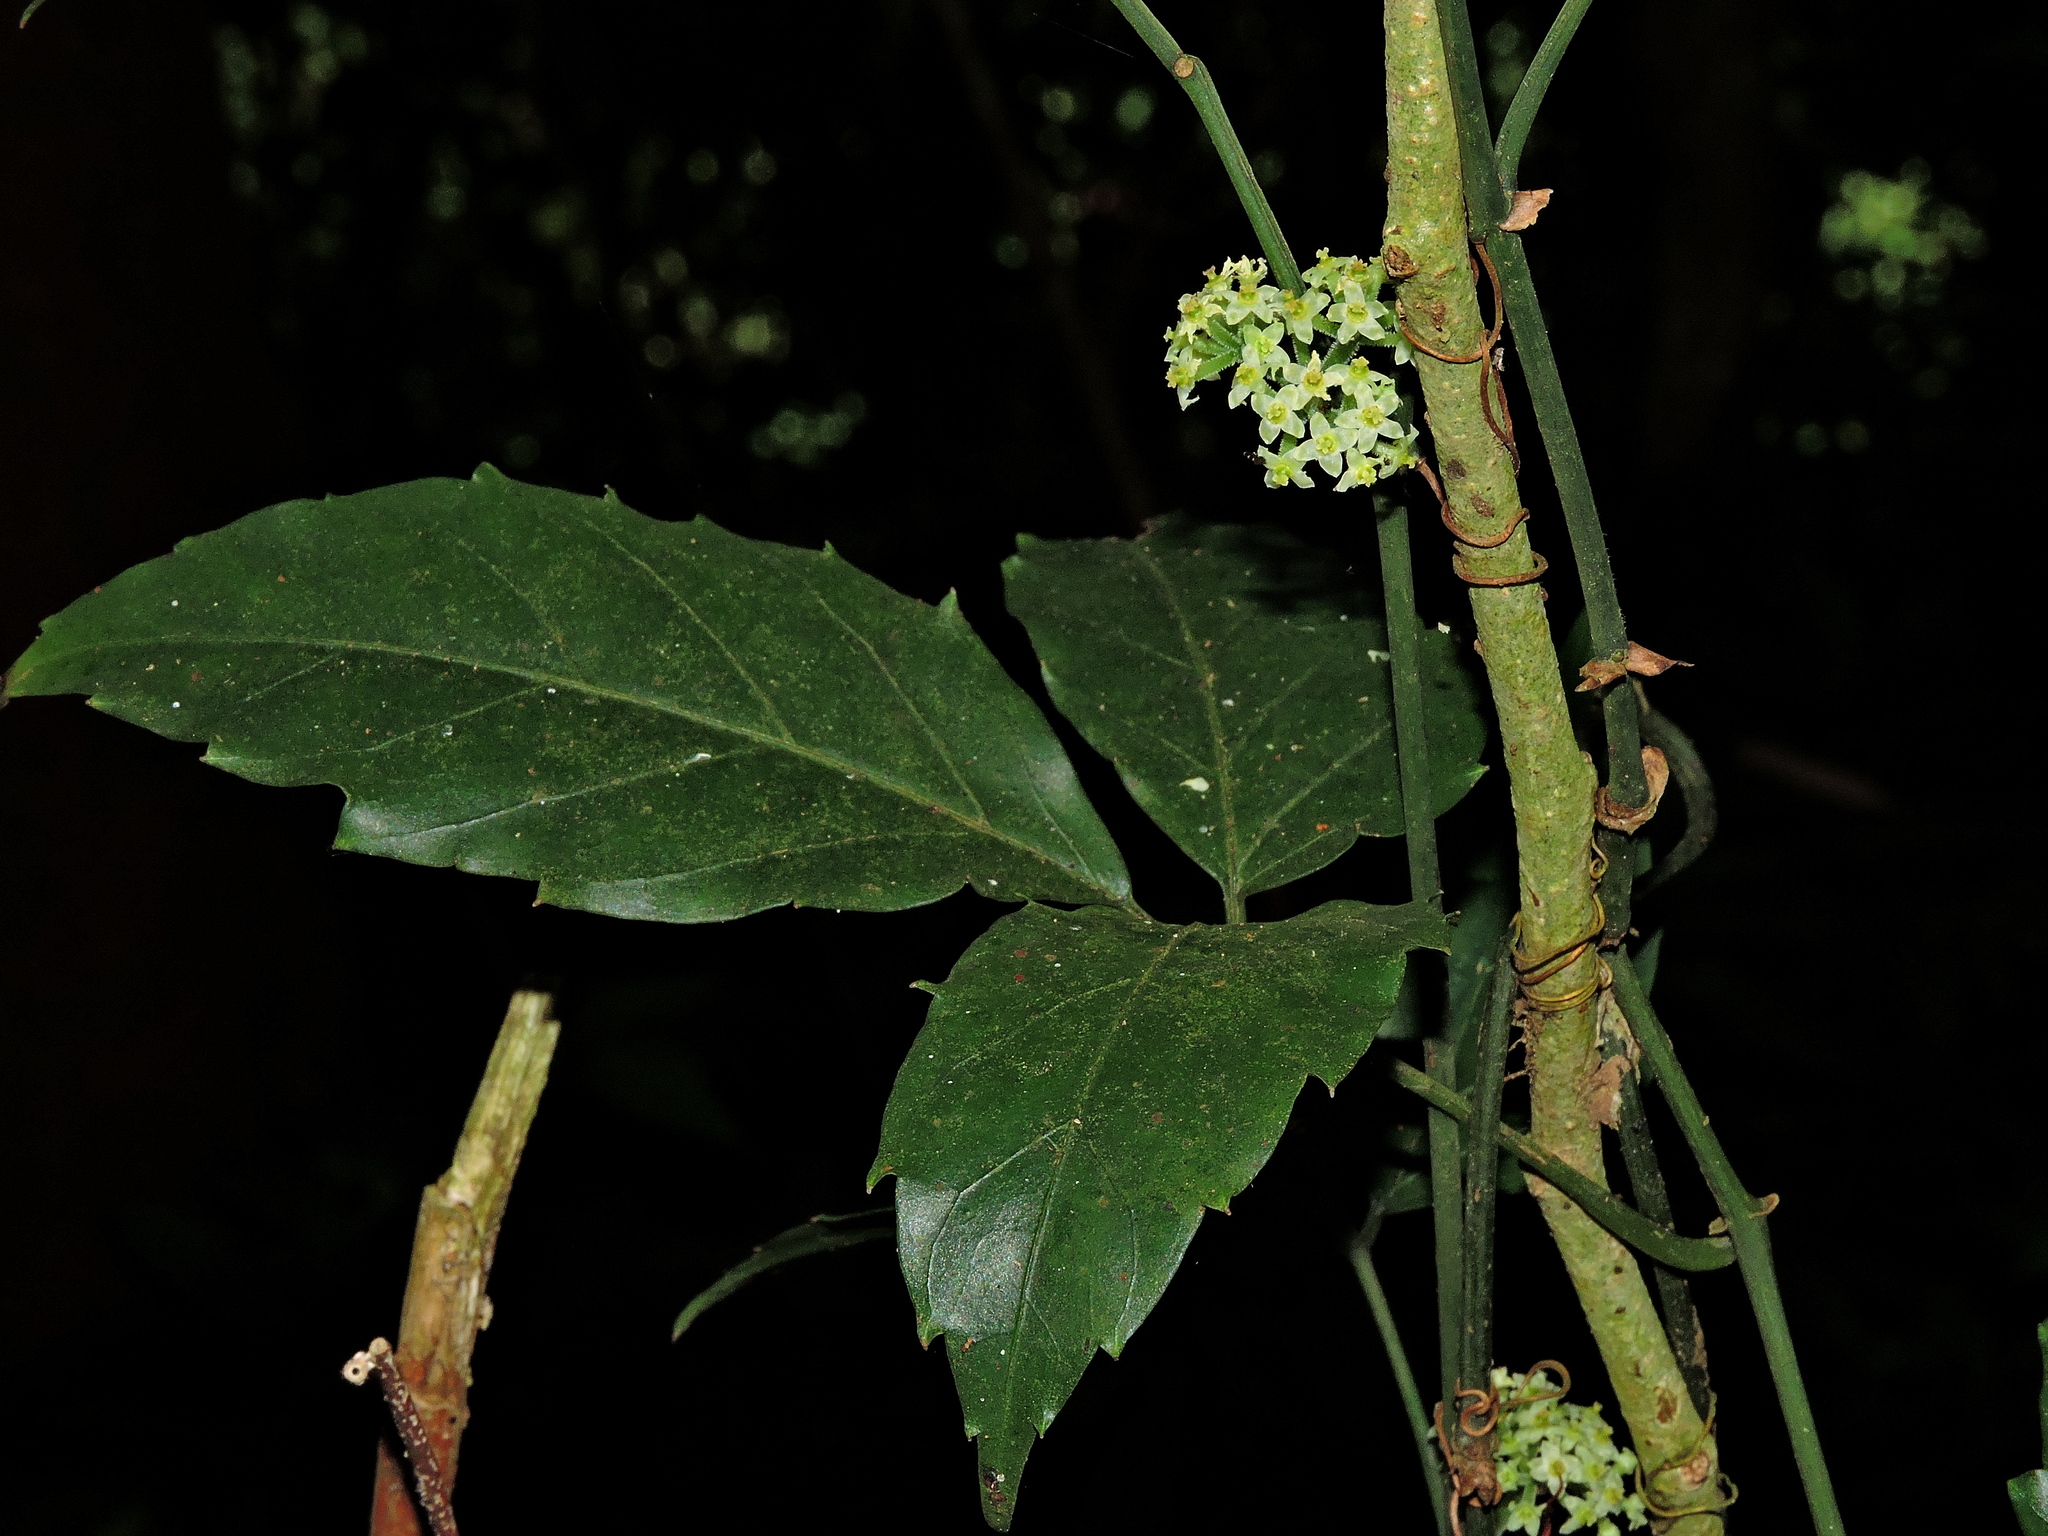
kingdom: Plantae
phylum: Tracheophyta
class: Magnoliopsida
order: Vitales
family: Vitaceae
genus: Tetrastigma
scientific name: Tetrastigma hemsleyanum
